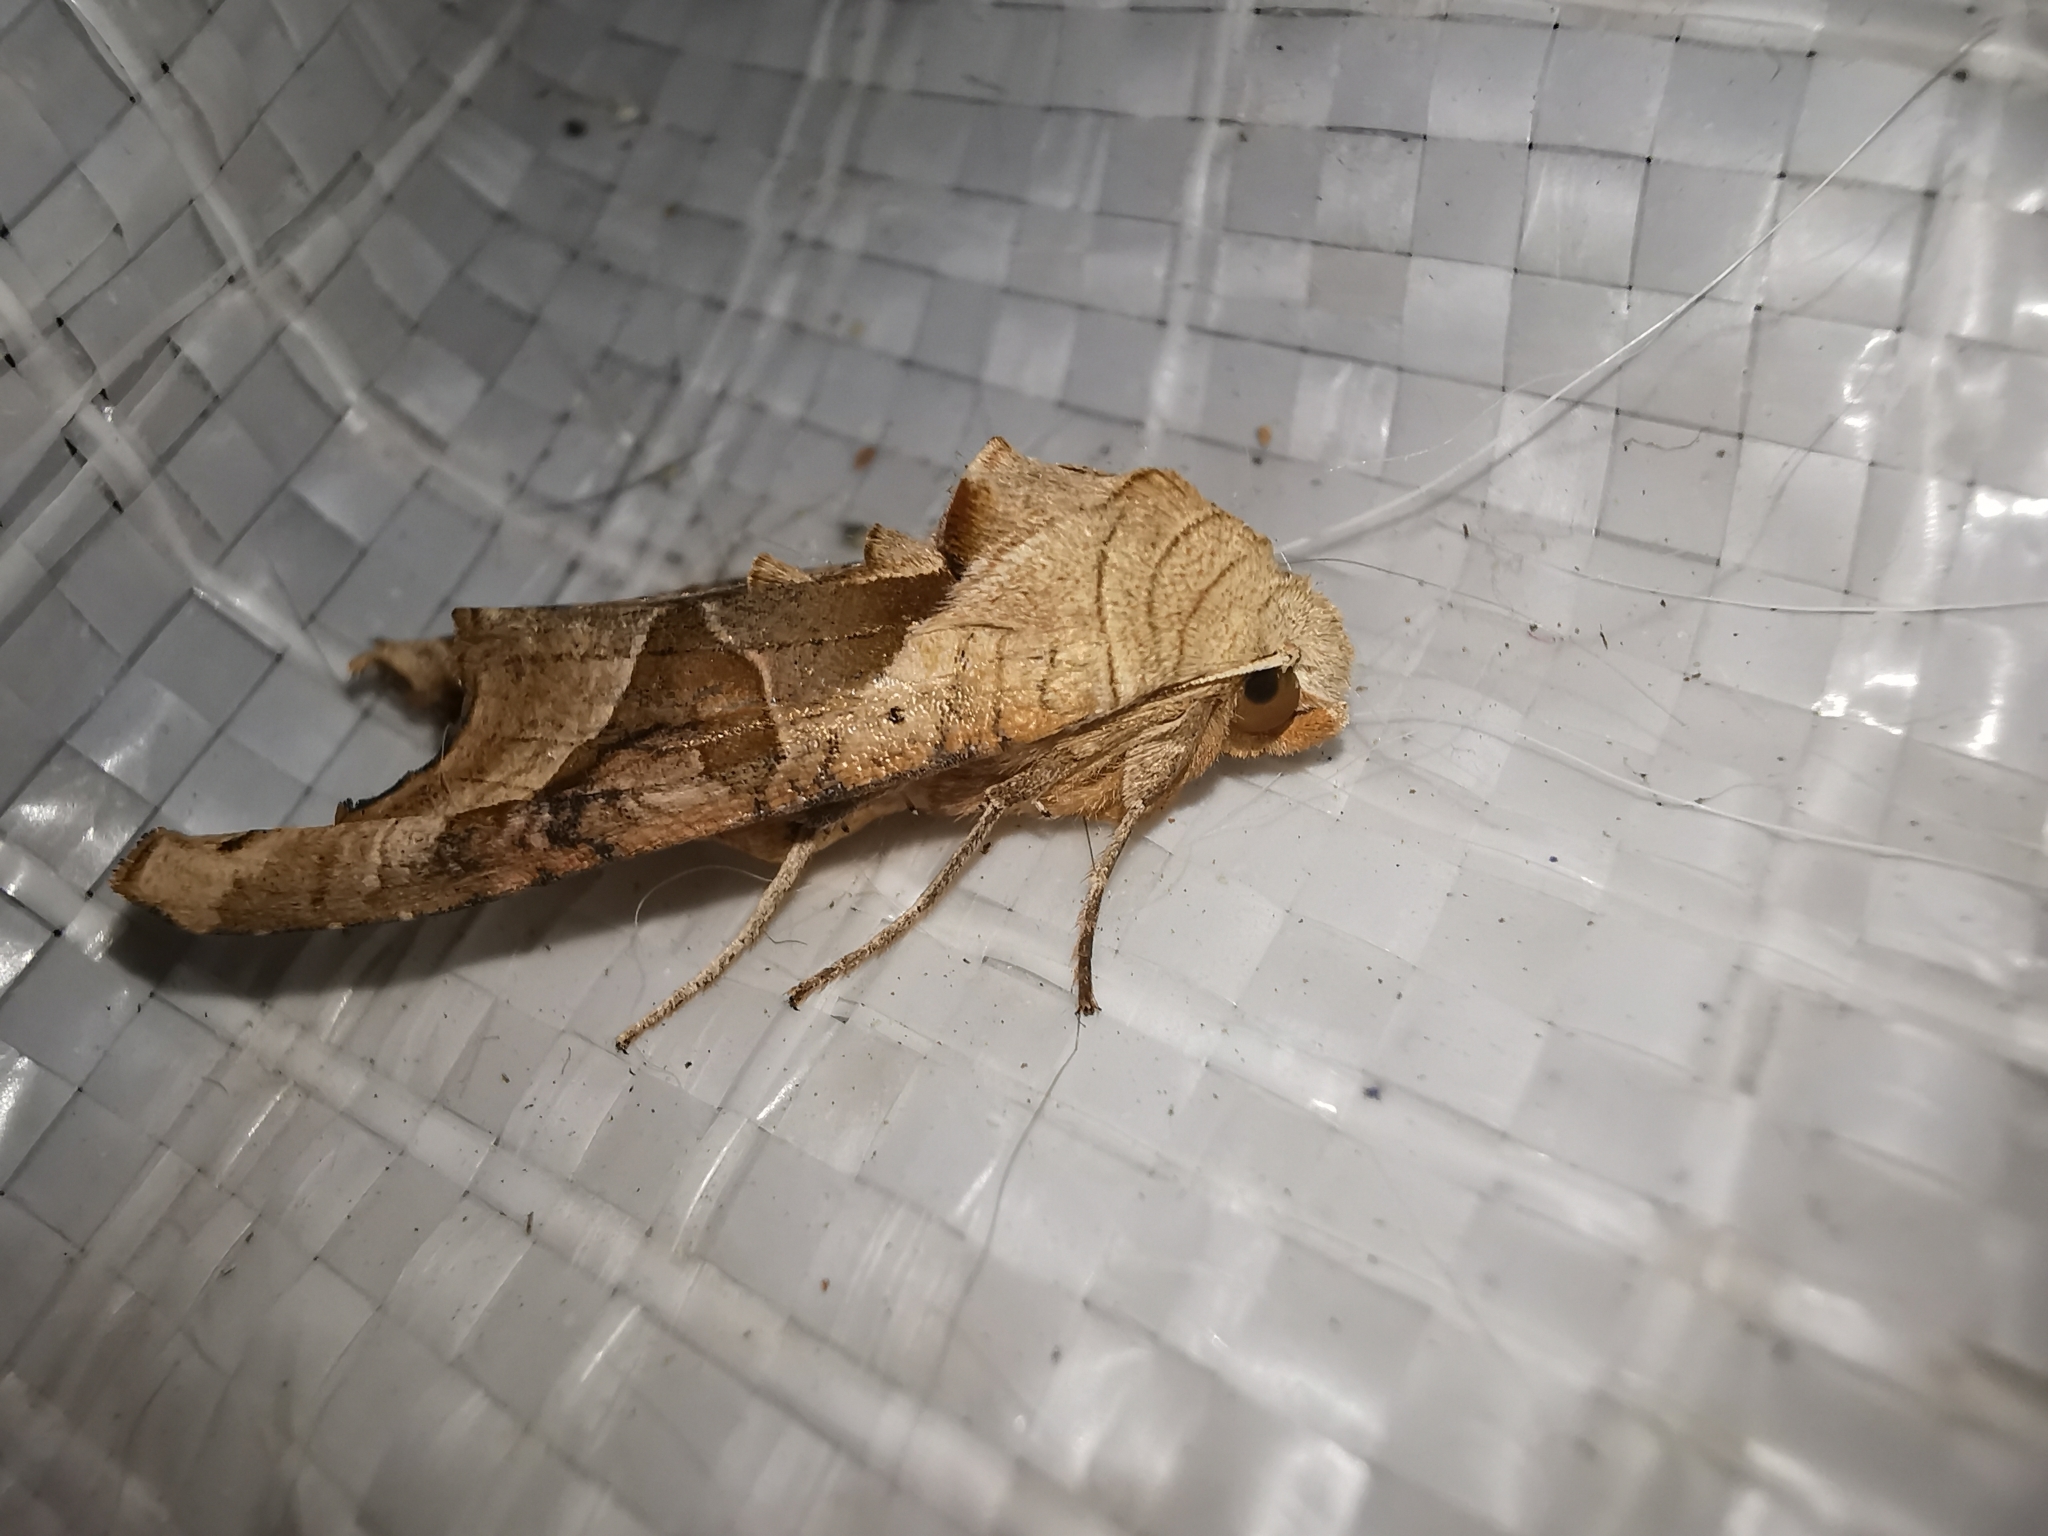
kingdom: Animalia
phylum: Arthropoda
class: Insecta
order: Lepidoptera
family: Noctuidae
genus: Phlogophora
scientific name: Phlogophora meticulosa
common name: Angle shades
